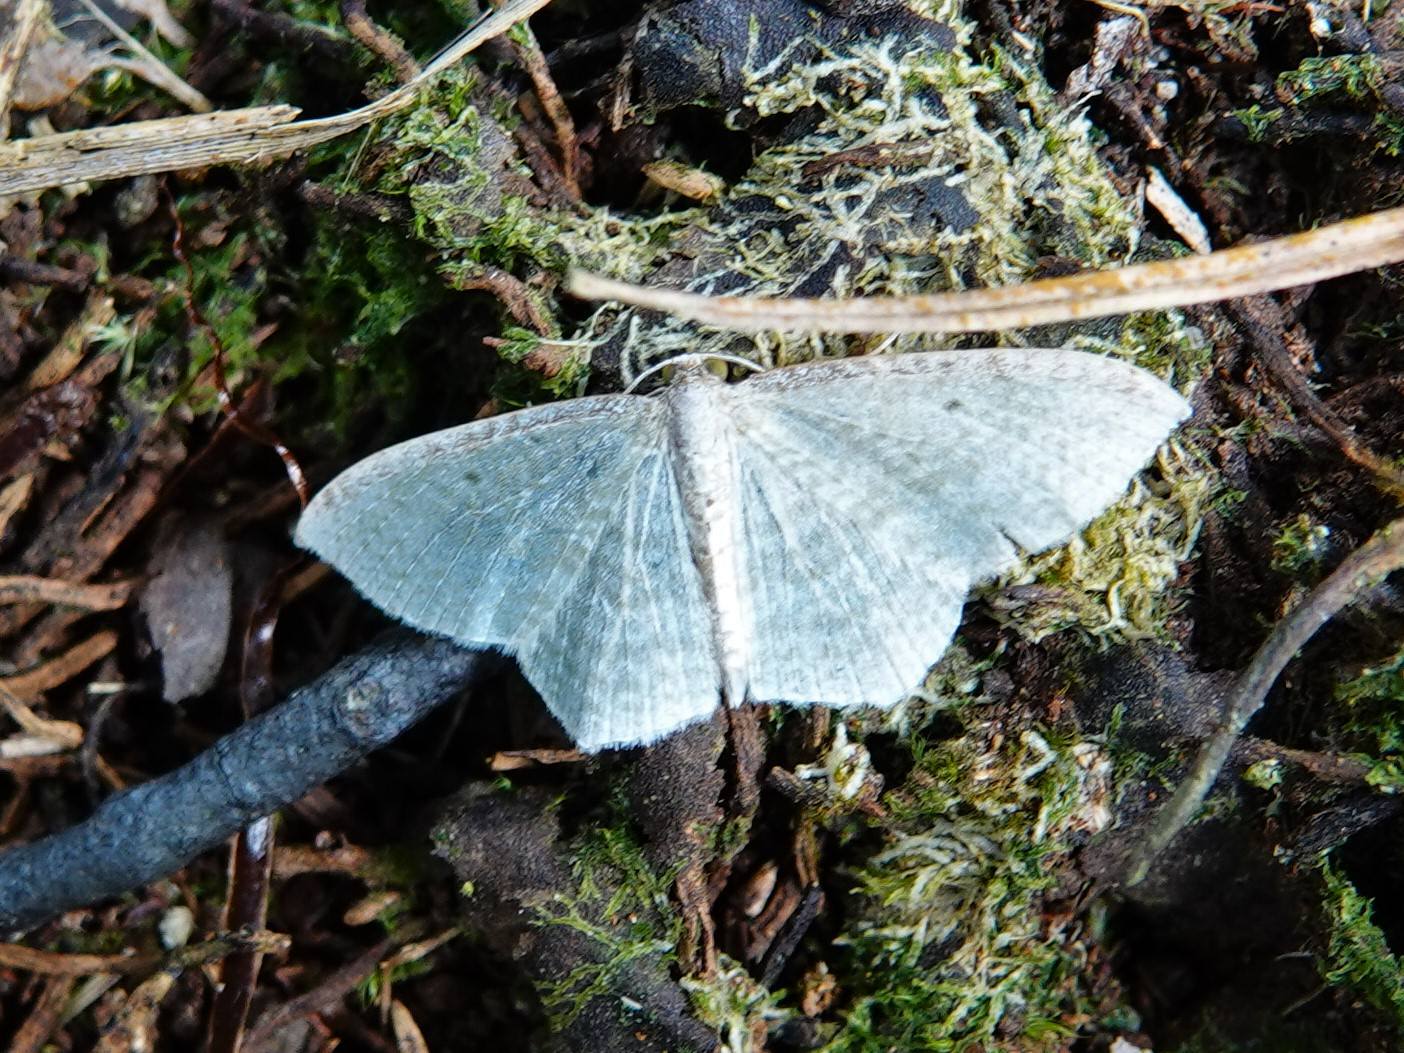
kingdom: Animalia
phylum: Arthropoda
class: Insecta
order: Lepidoptera
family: Geometridae
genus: Poecilasthena
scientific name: Poecilasthena pulchraria
